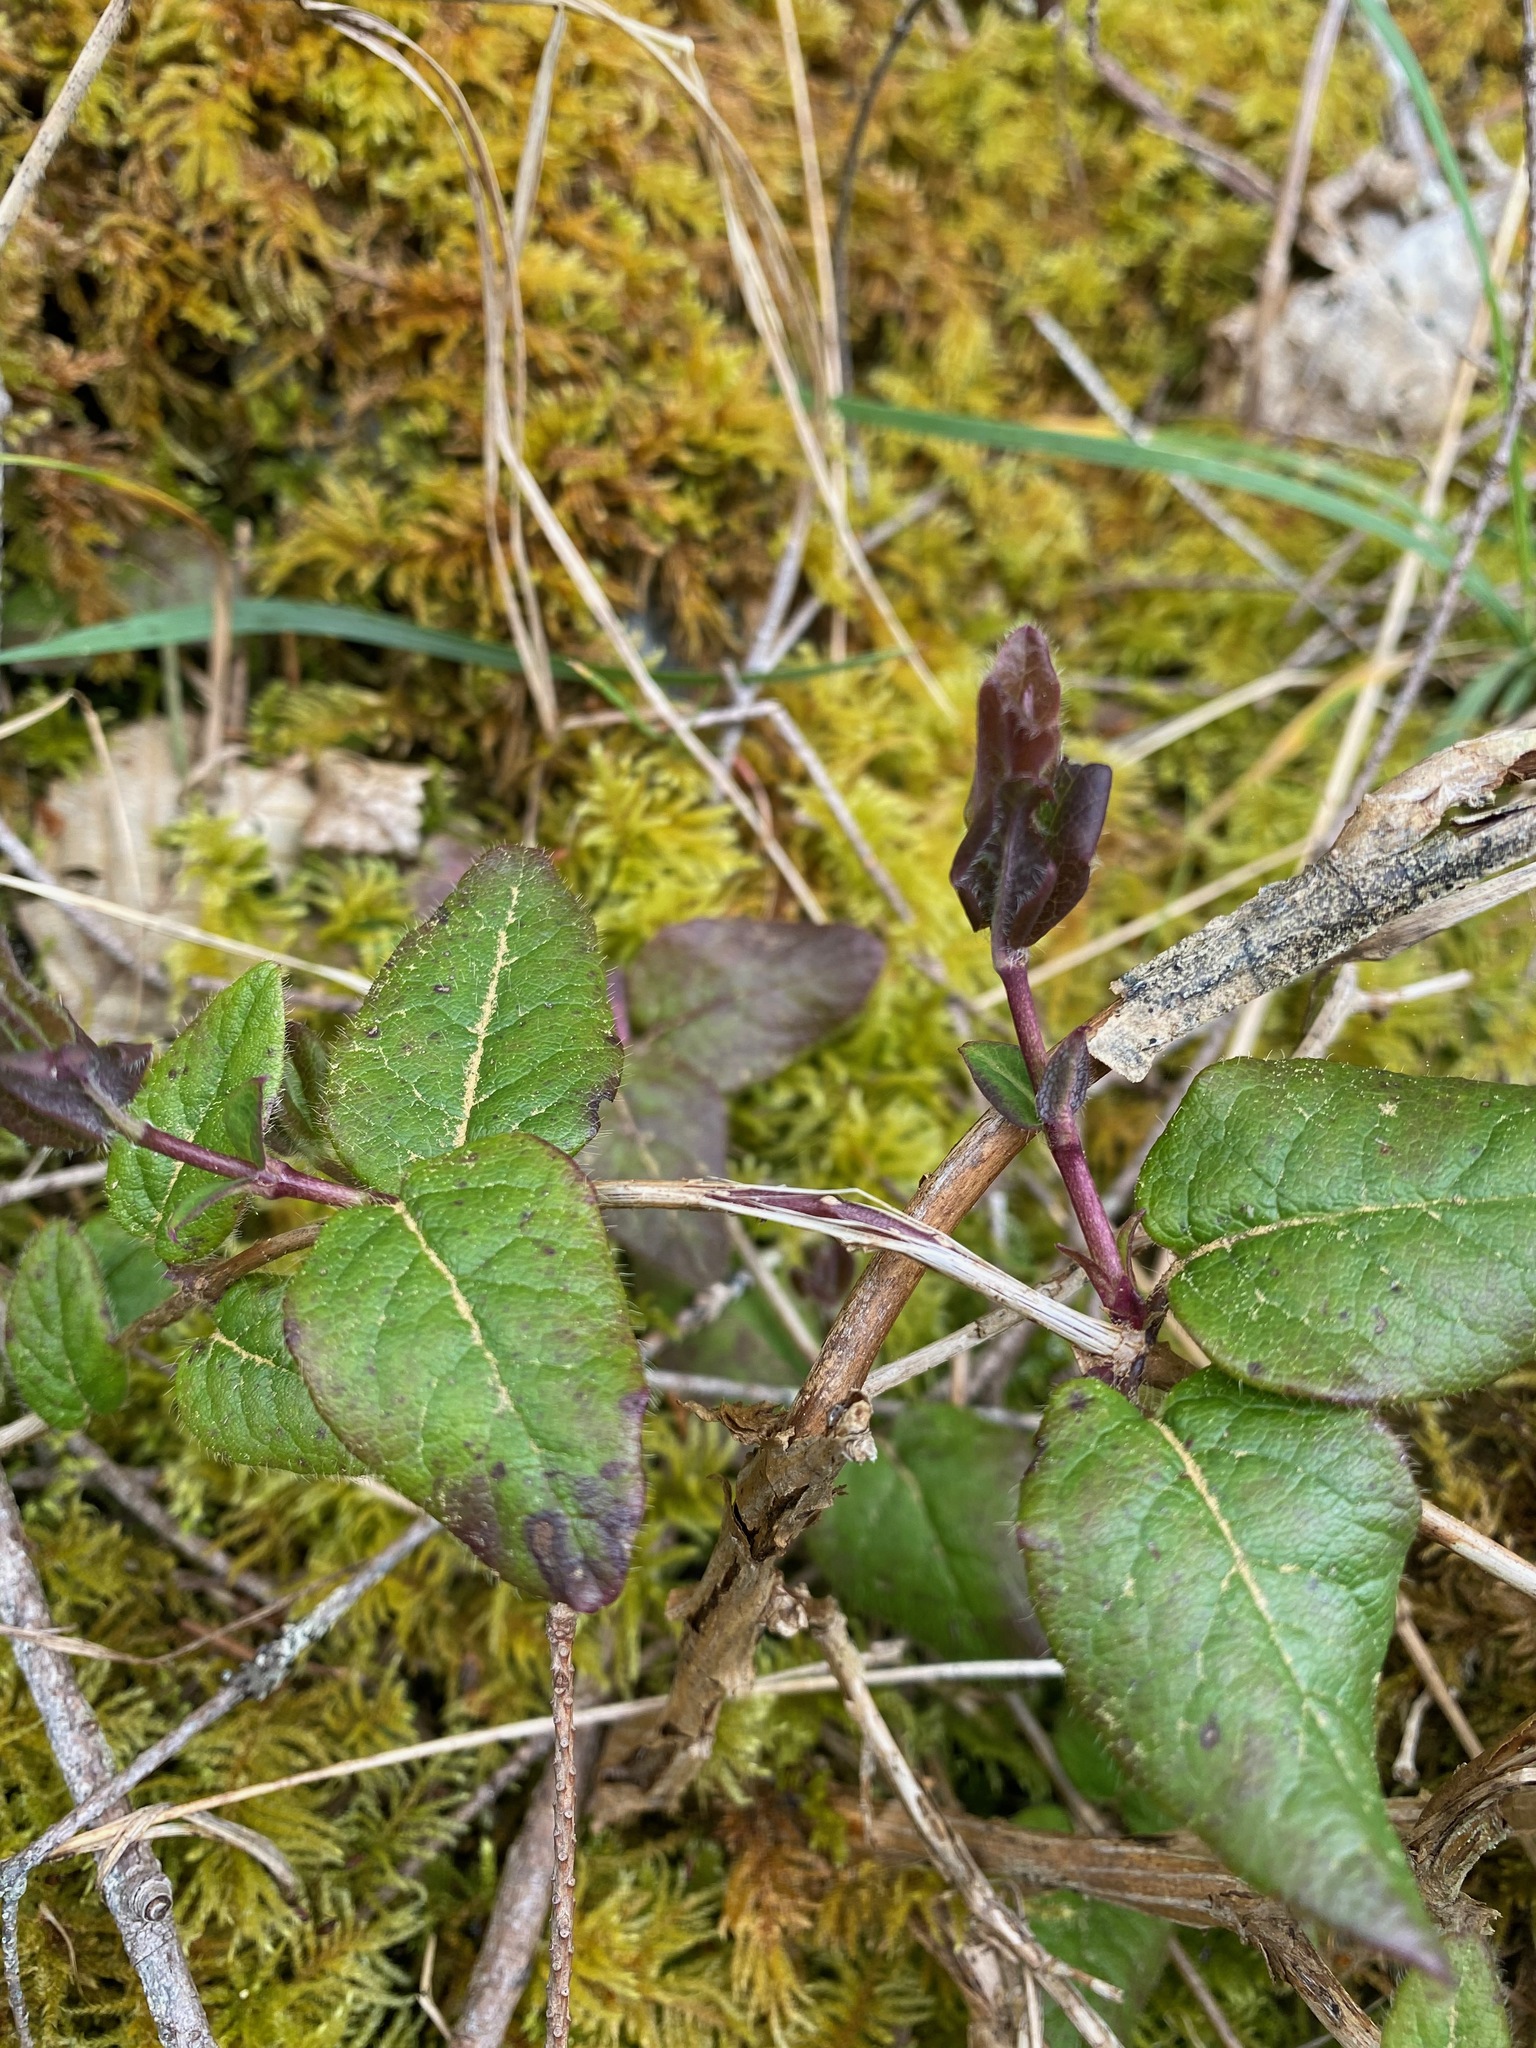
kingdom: Plantae
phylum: Tracheophyta
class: Magnoliopsida
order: Dipsacales
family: Caprifoliaceae
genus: Lonicera
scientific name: Lonicera hispidula
